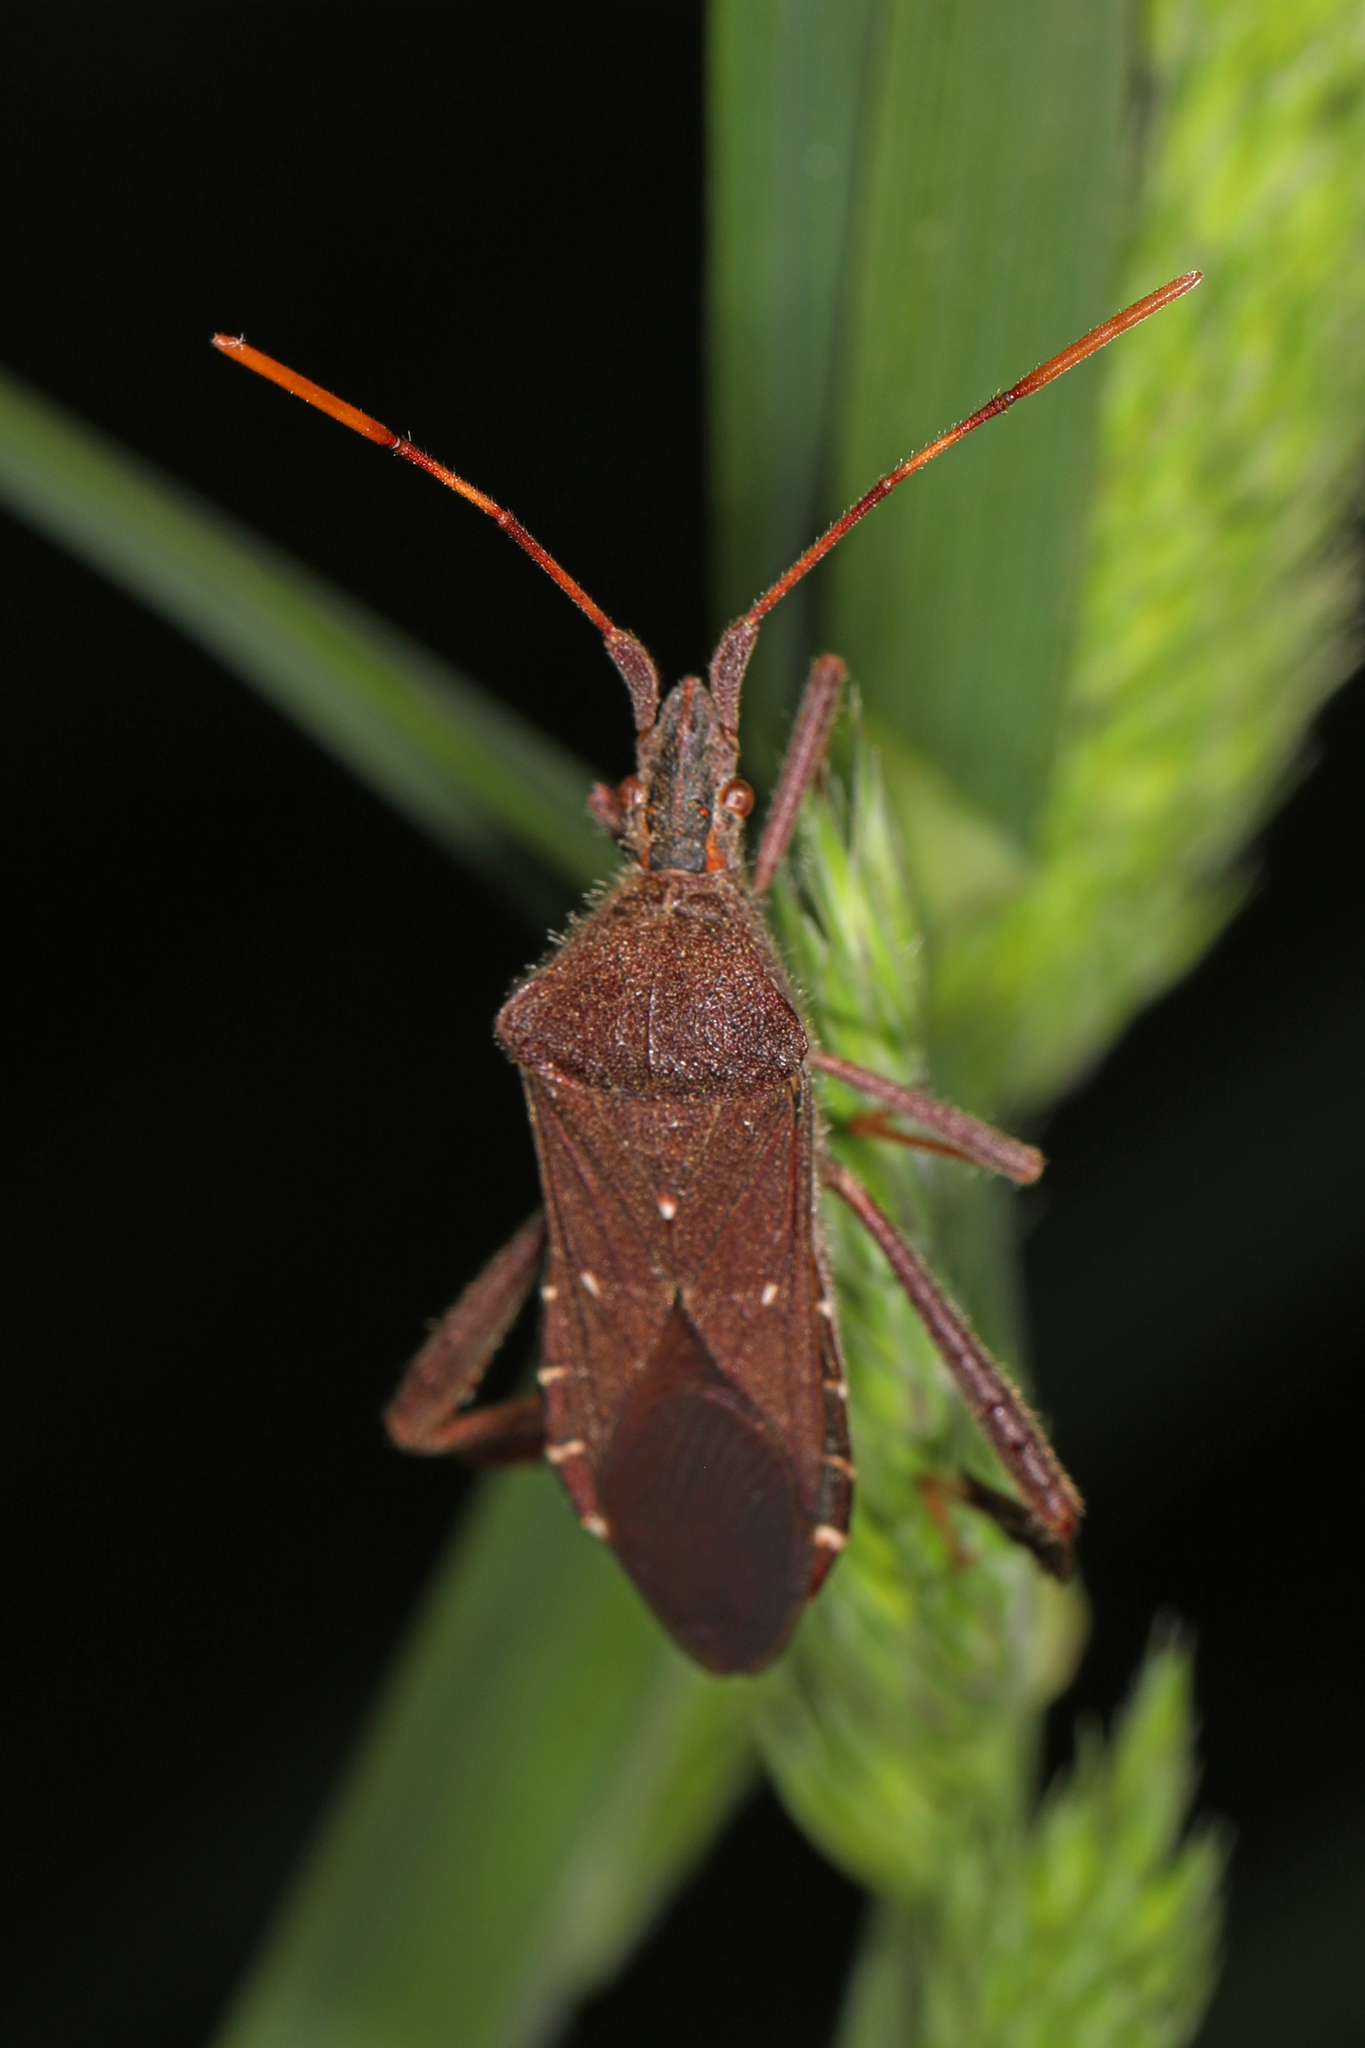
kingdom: Animalia
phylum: Arthropoda
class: Insecta
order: Hemiptera
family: Coreidae
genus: Leptoglossus
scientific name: Leptoglossus oppositus
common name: Northern leaf-footed bug
